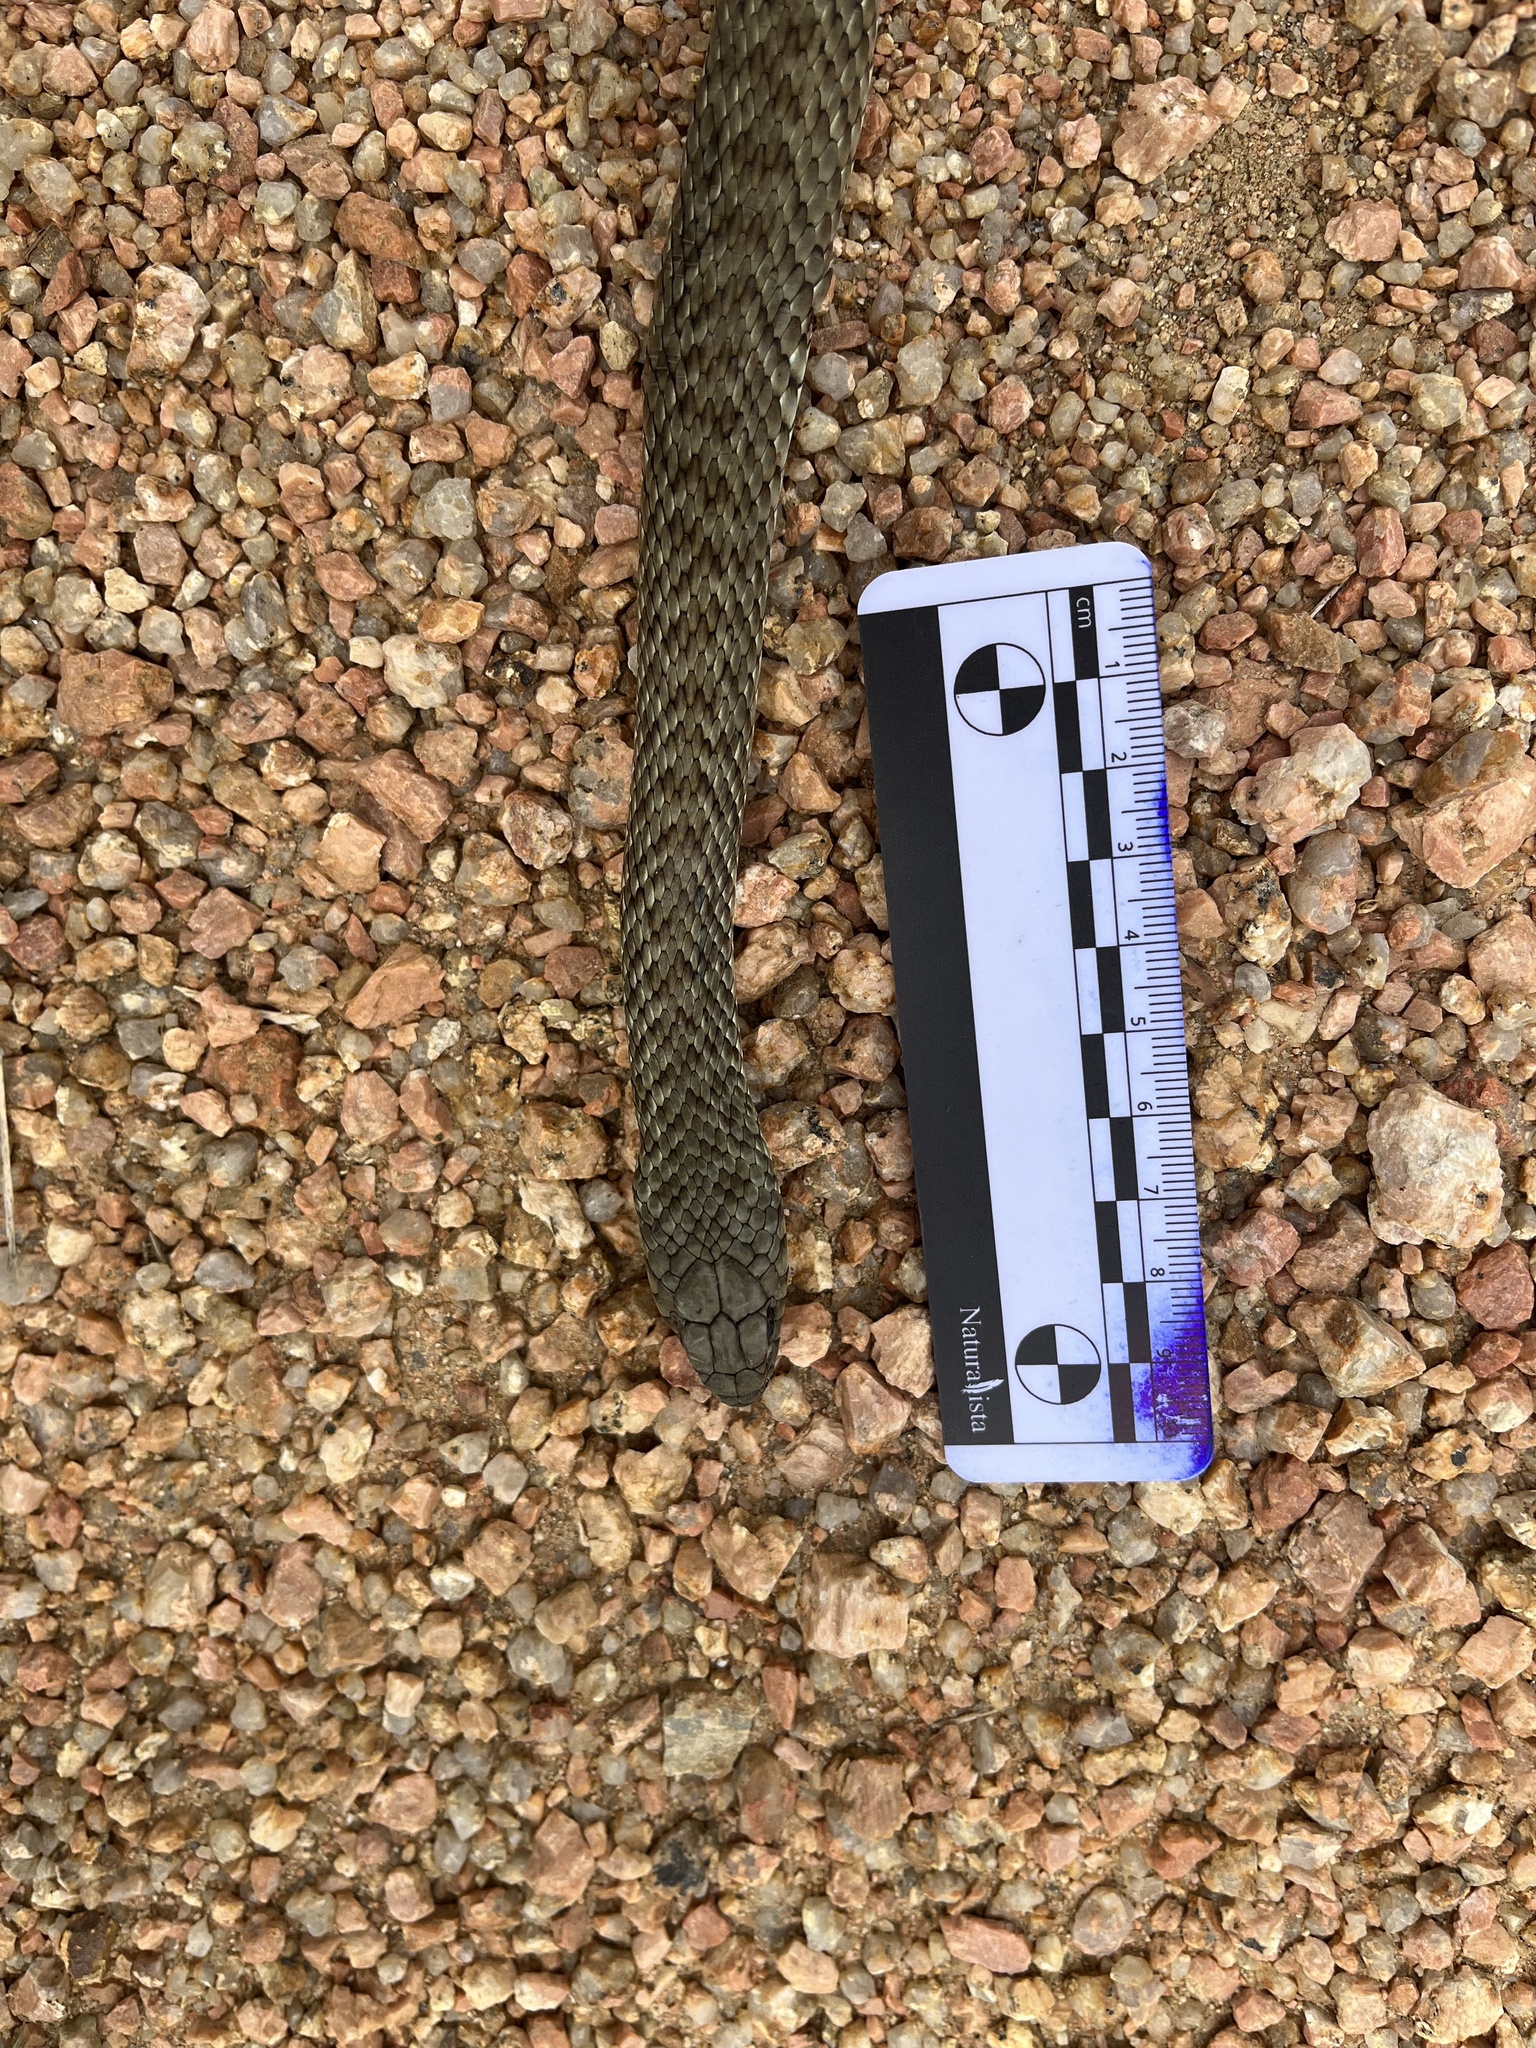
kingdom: Animalia
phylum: Chordata
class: Squamata
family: Colubridae
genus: Philodryas
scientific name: Philodryas patagoniensis
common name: Patagonia green racer
